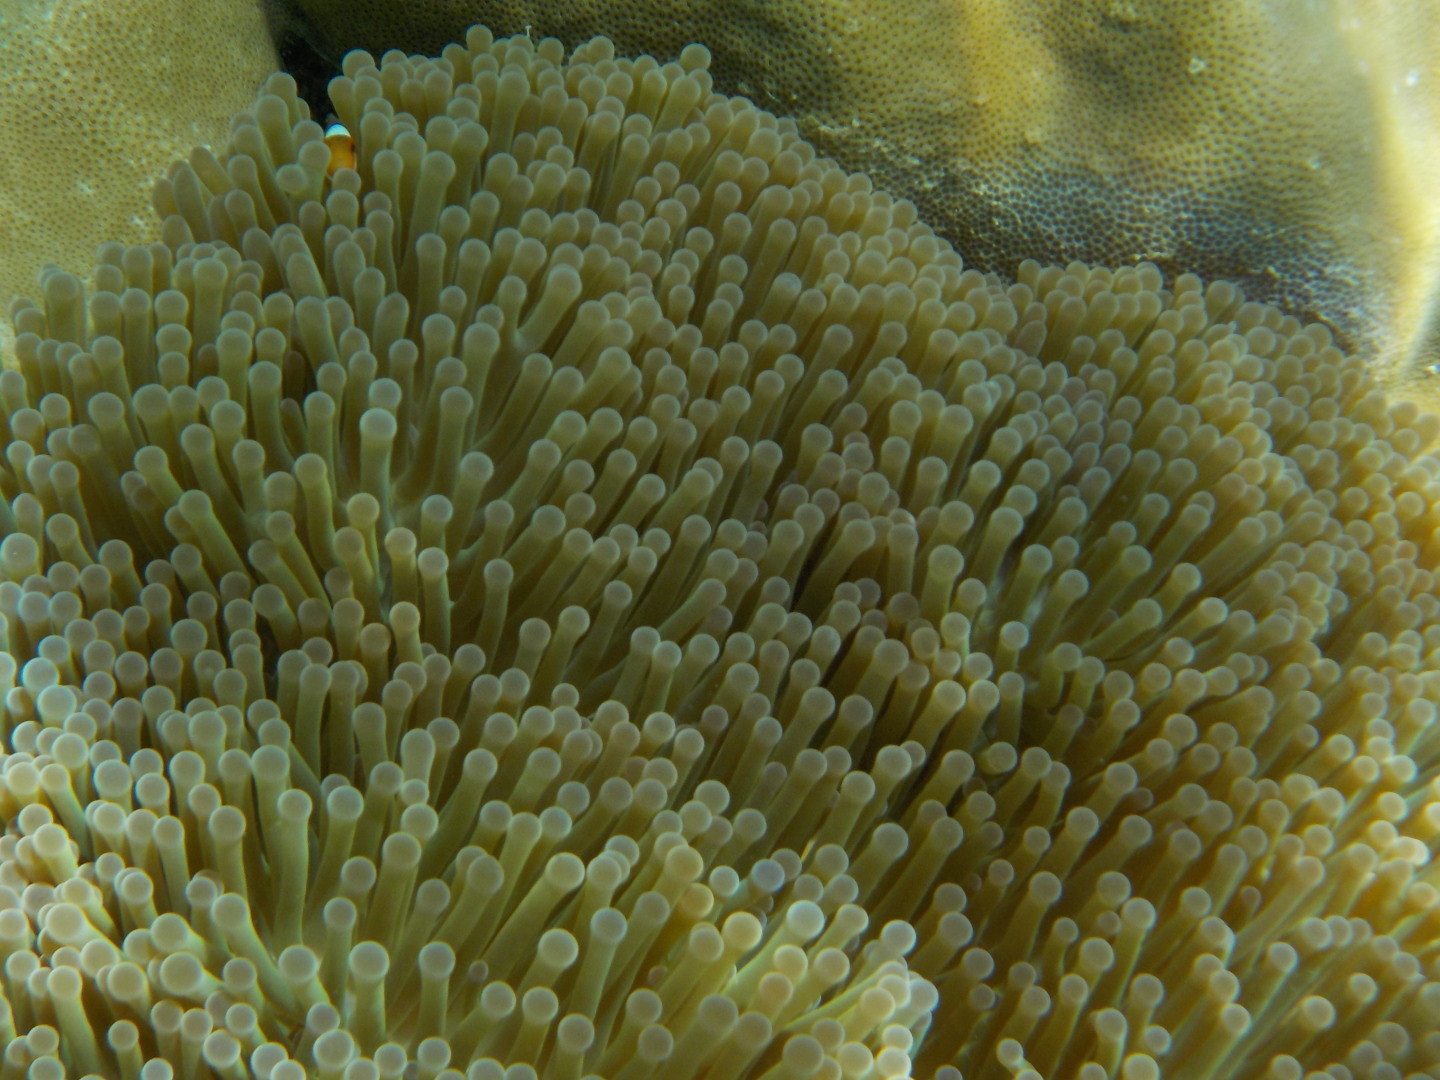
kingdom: Animalia
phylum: Cnidaria
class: Anthozoa
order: Actiniaria
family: Stichodactylidae
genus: Radianthus
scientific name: Radianthus magnifica
